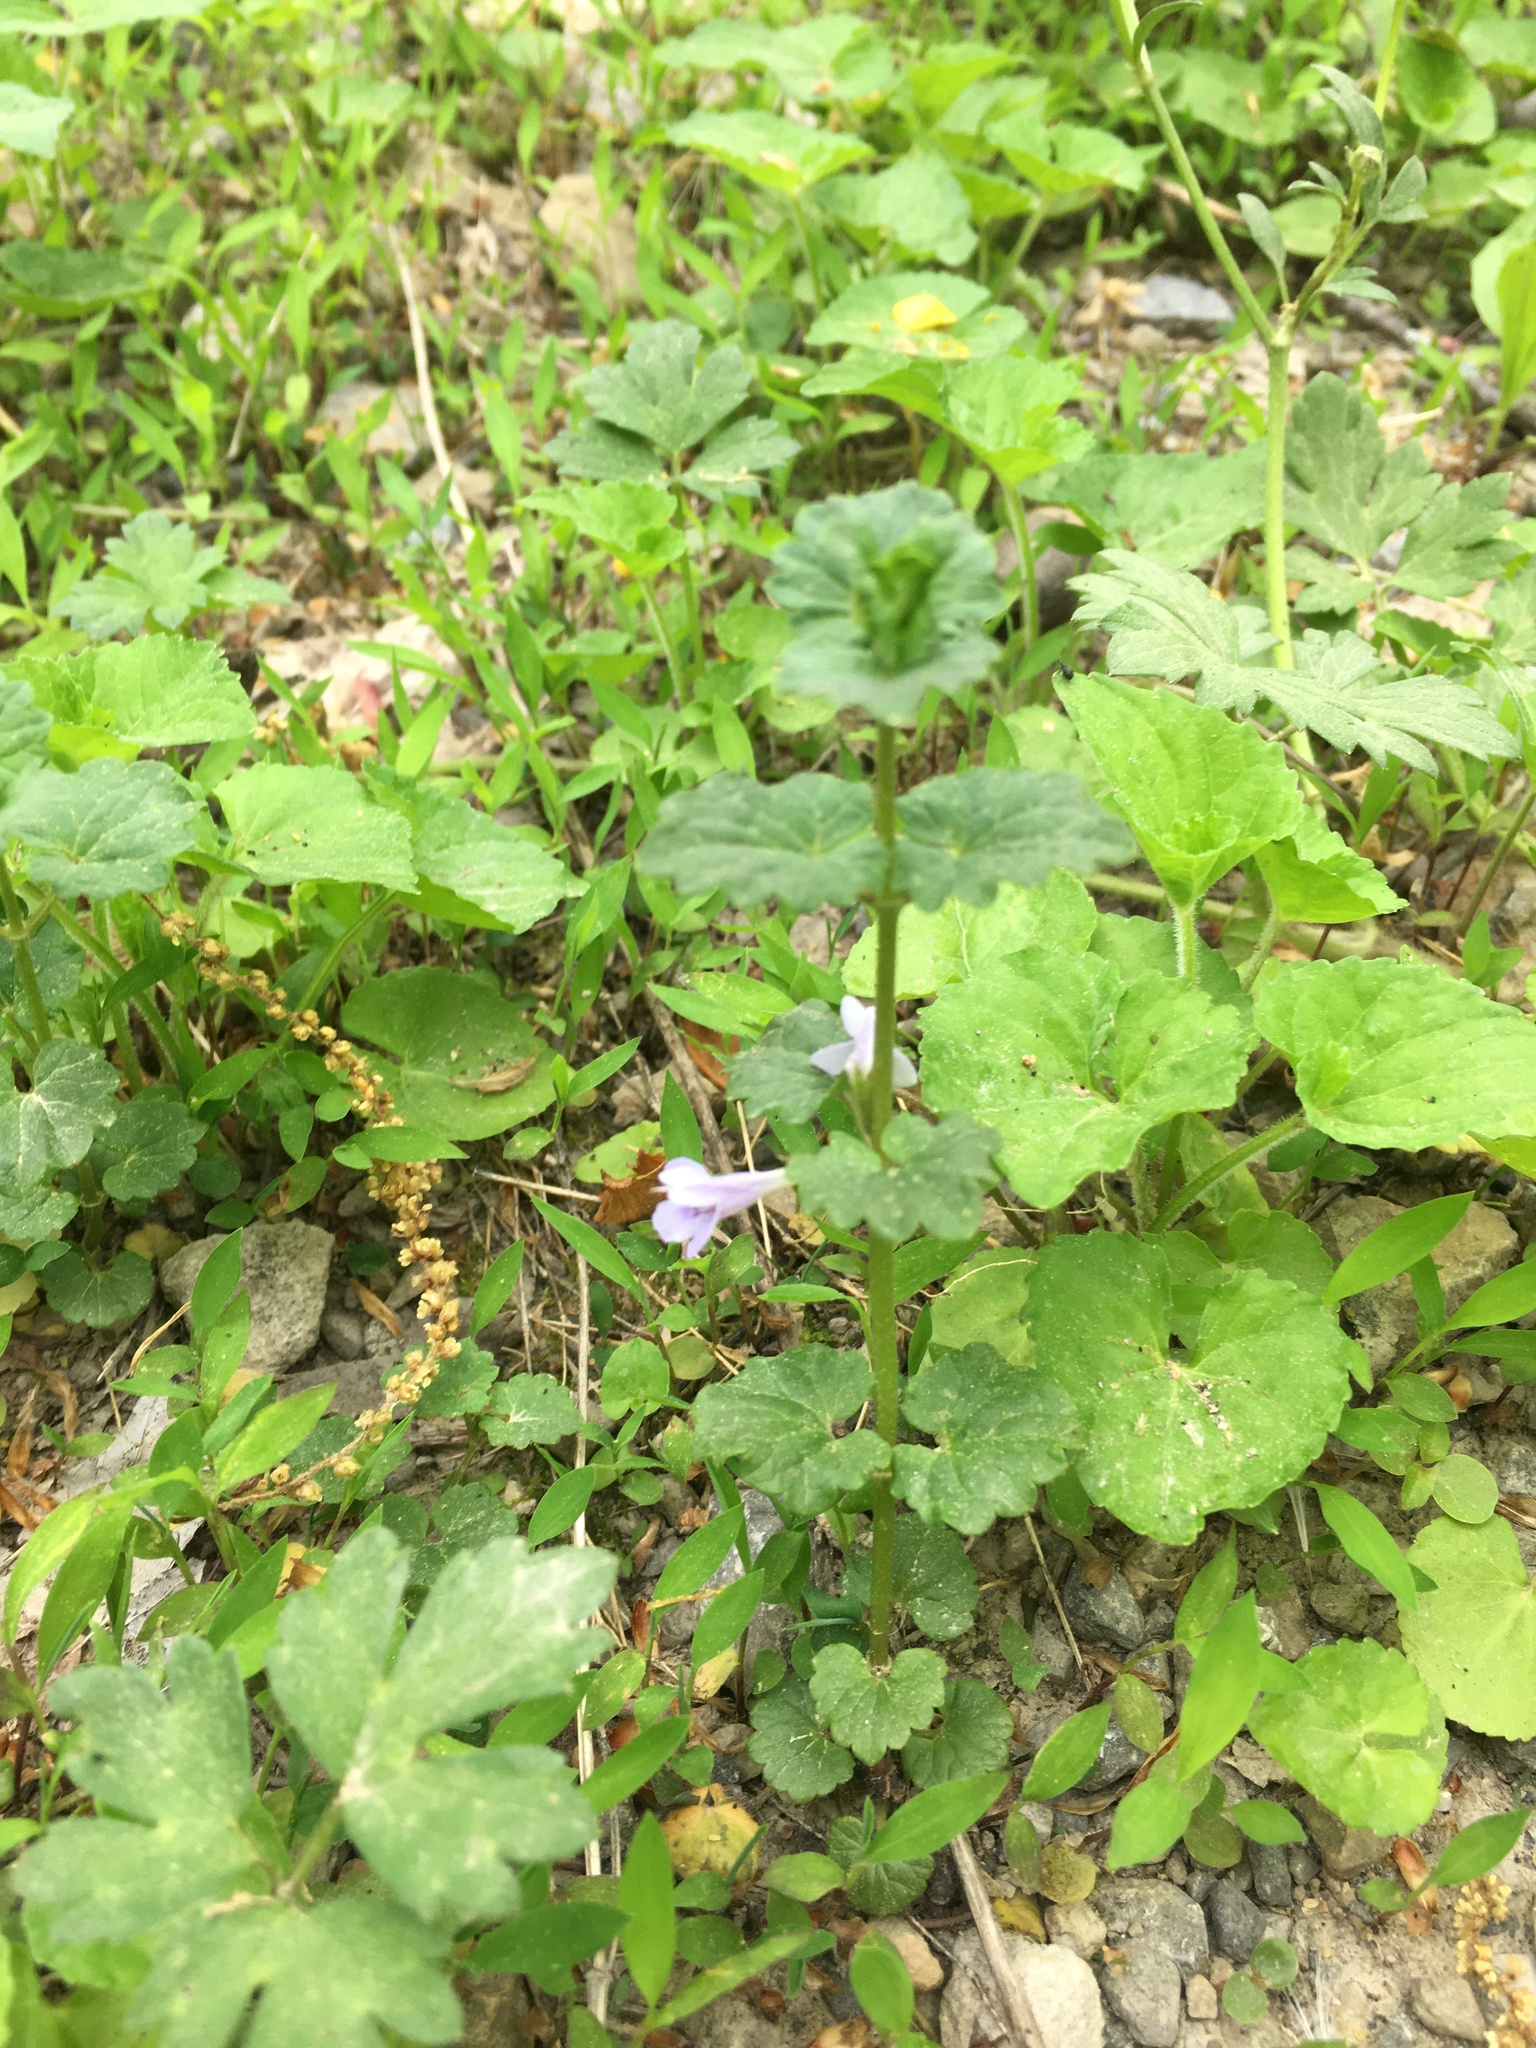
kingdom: Plantae
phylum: Tracheophyta
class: Magnoliopsida
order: Lamiales
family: Lamiaceae
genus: Glechoma
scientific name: Glechoma hederacea
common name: Ground ivy
